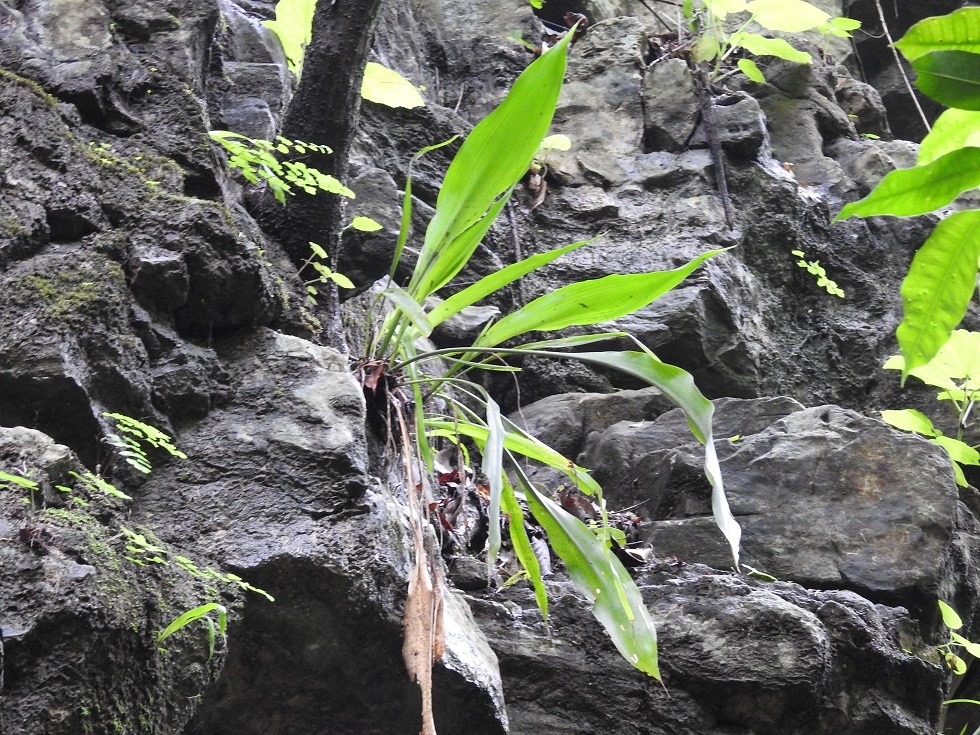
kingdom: Plantae
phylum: Tracheophyta
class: Liliopsida
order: Poales
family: Bromeliaceae
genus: Pitcairnia
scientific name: Pitcairnia chiapensis
